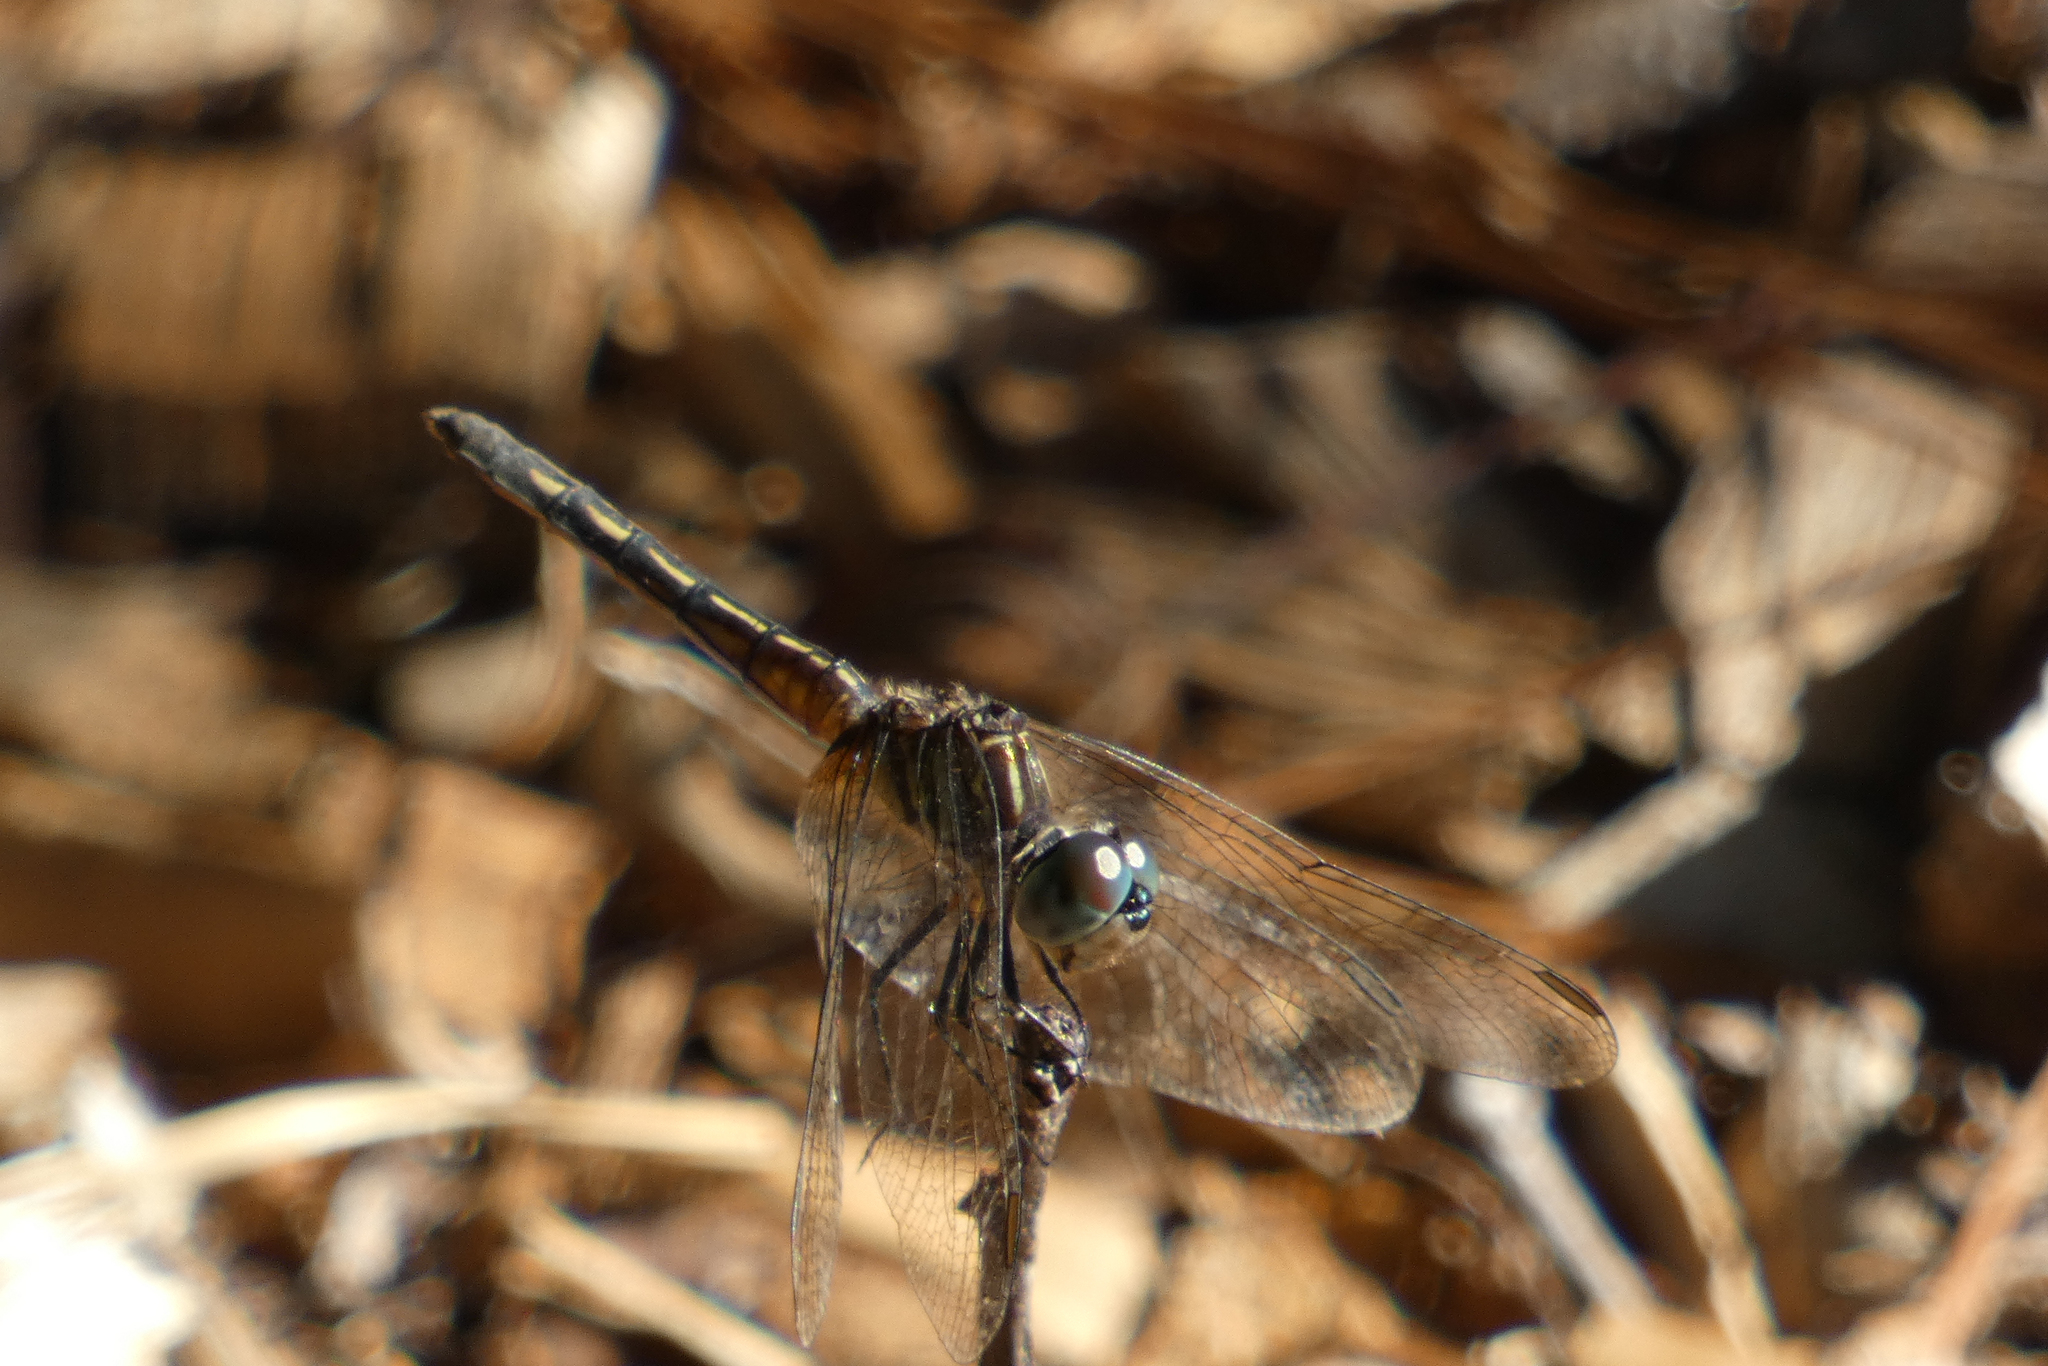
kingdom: Animalia
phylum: Arthropoda
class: Insecta
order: Odonata
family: Libellulidae
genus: Pachydiplax
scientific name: Pachydiplax longipennis
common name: Blue dasher
